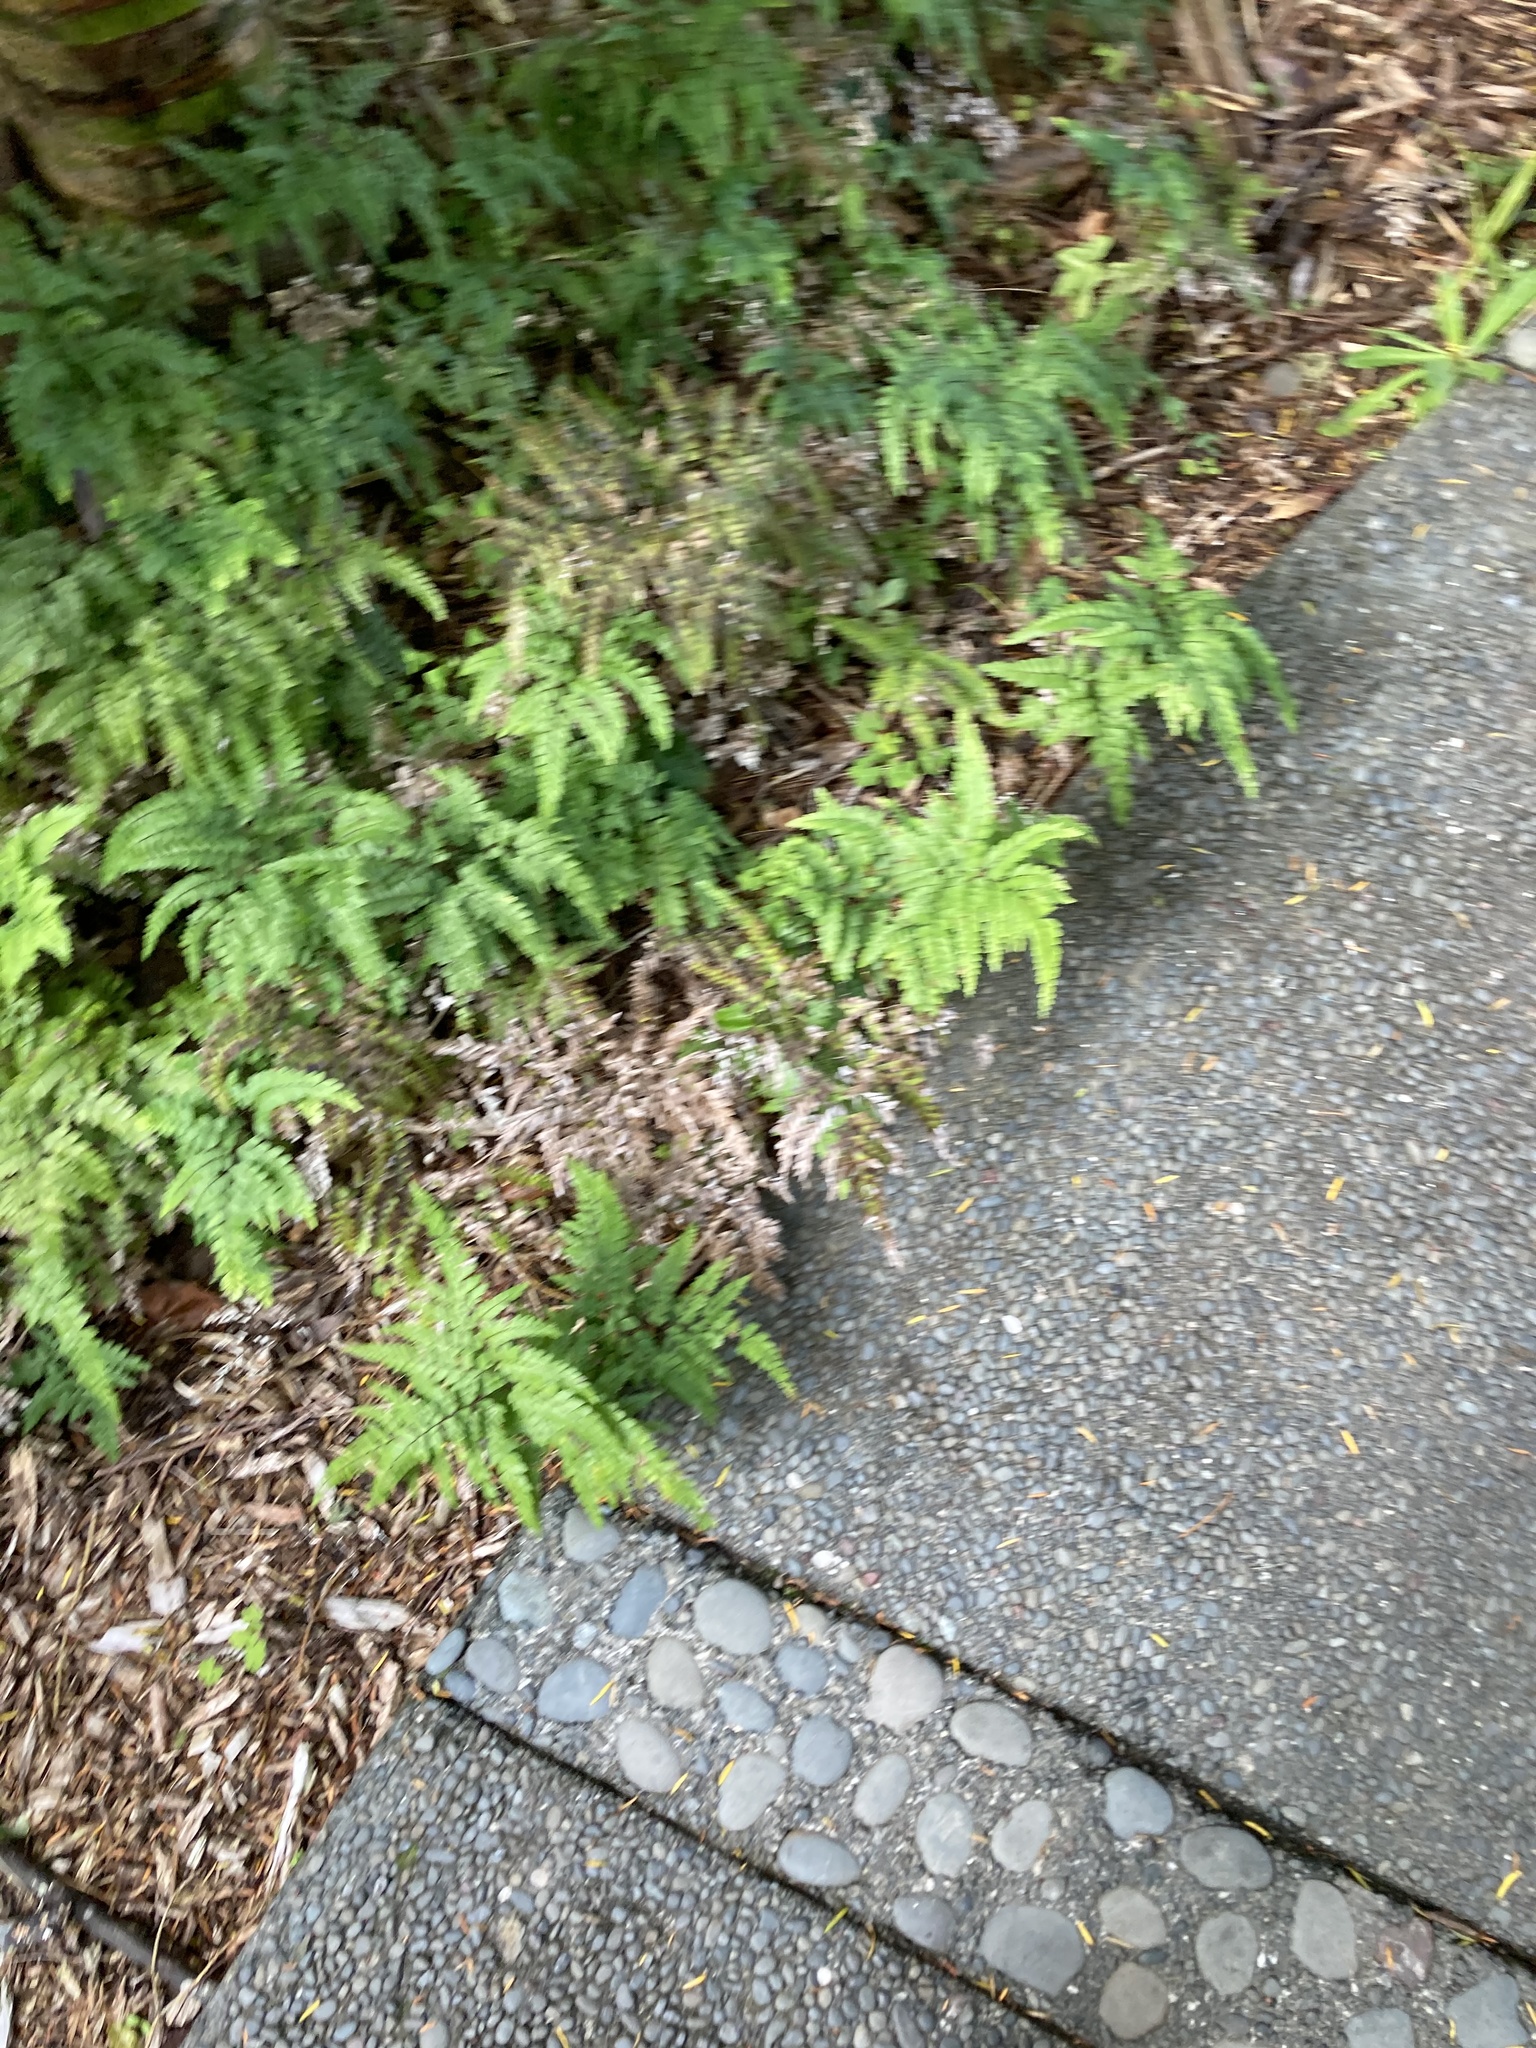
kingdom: Plantae
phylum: Tracheophyta
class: Polypodiopsida
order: Polypodiales
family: Pteridaceae
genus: Adiantum
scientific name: Adiantum formosum
